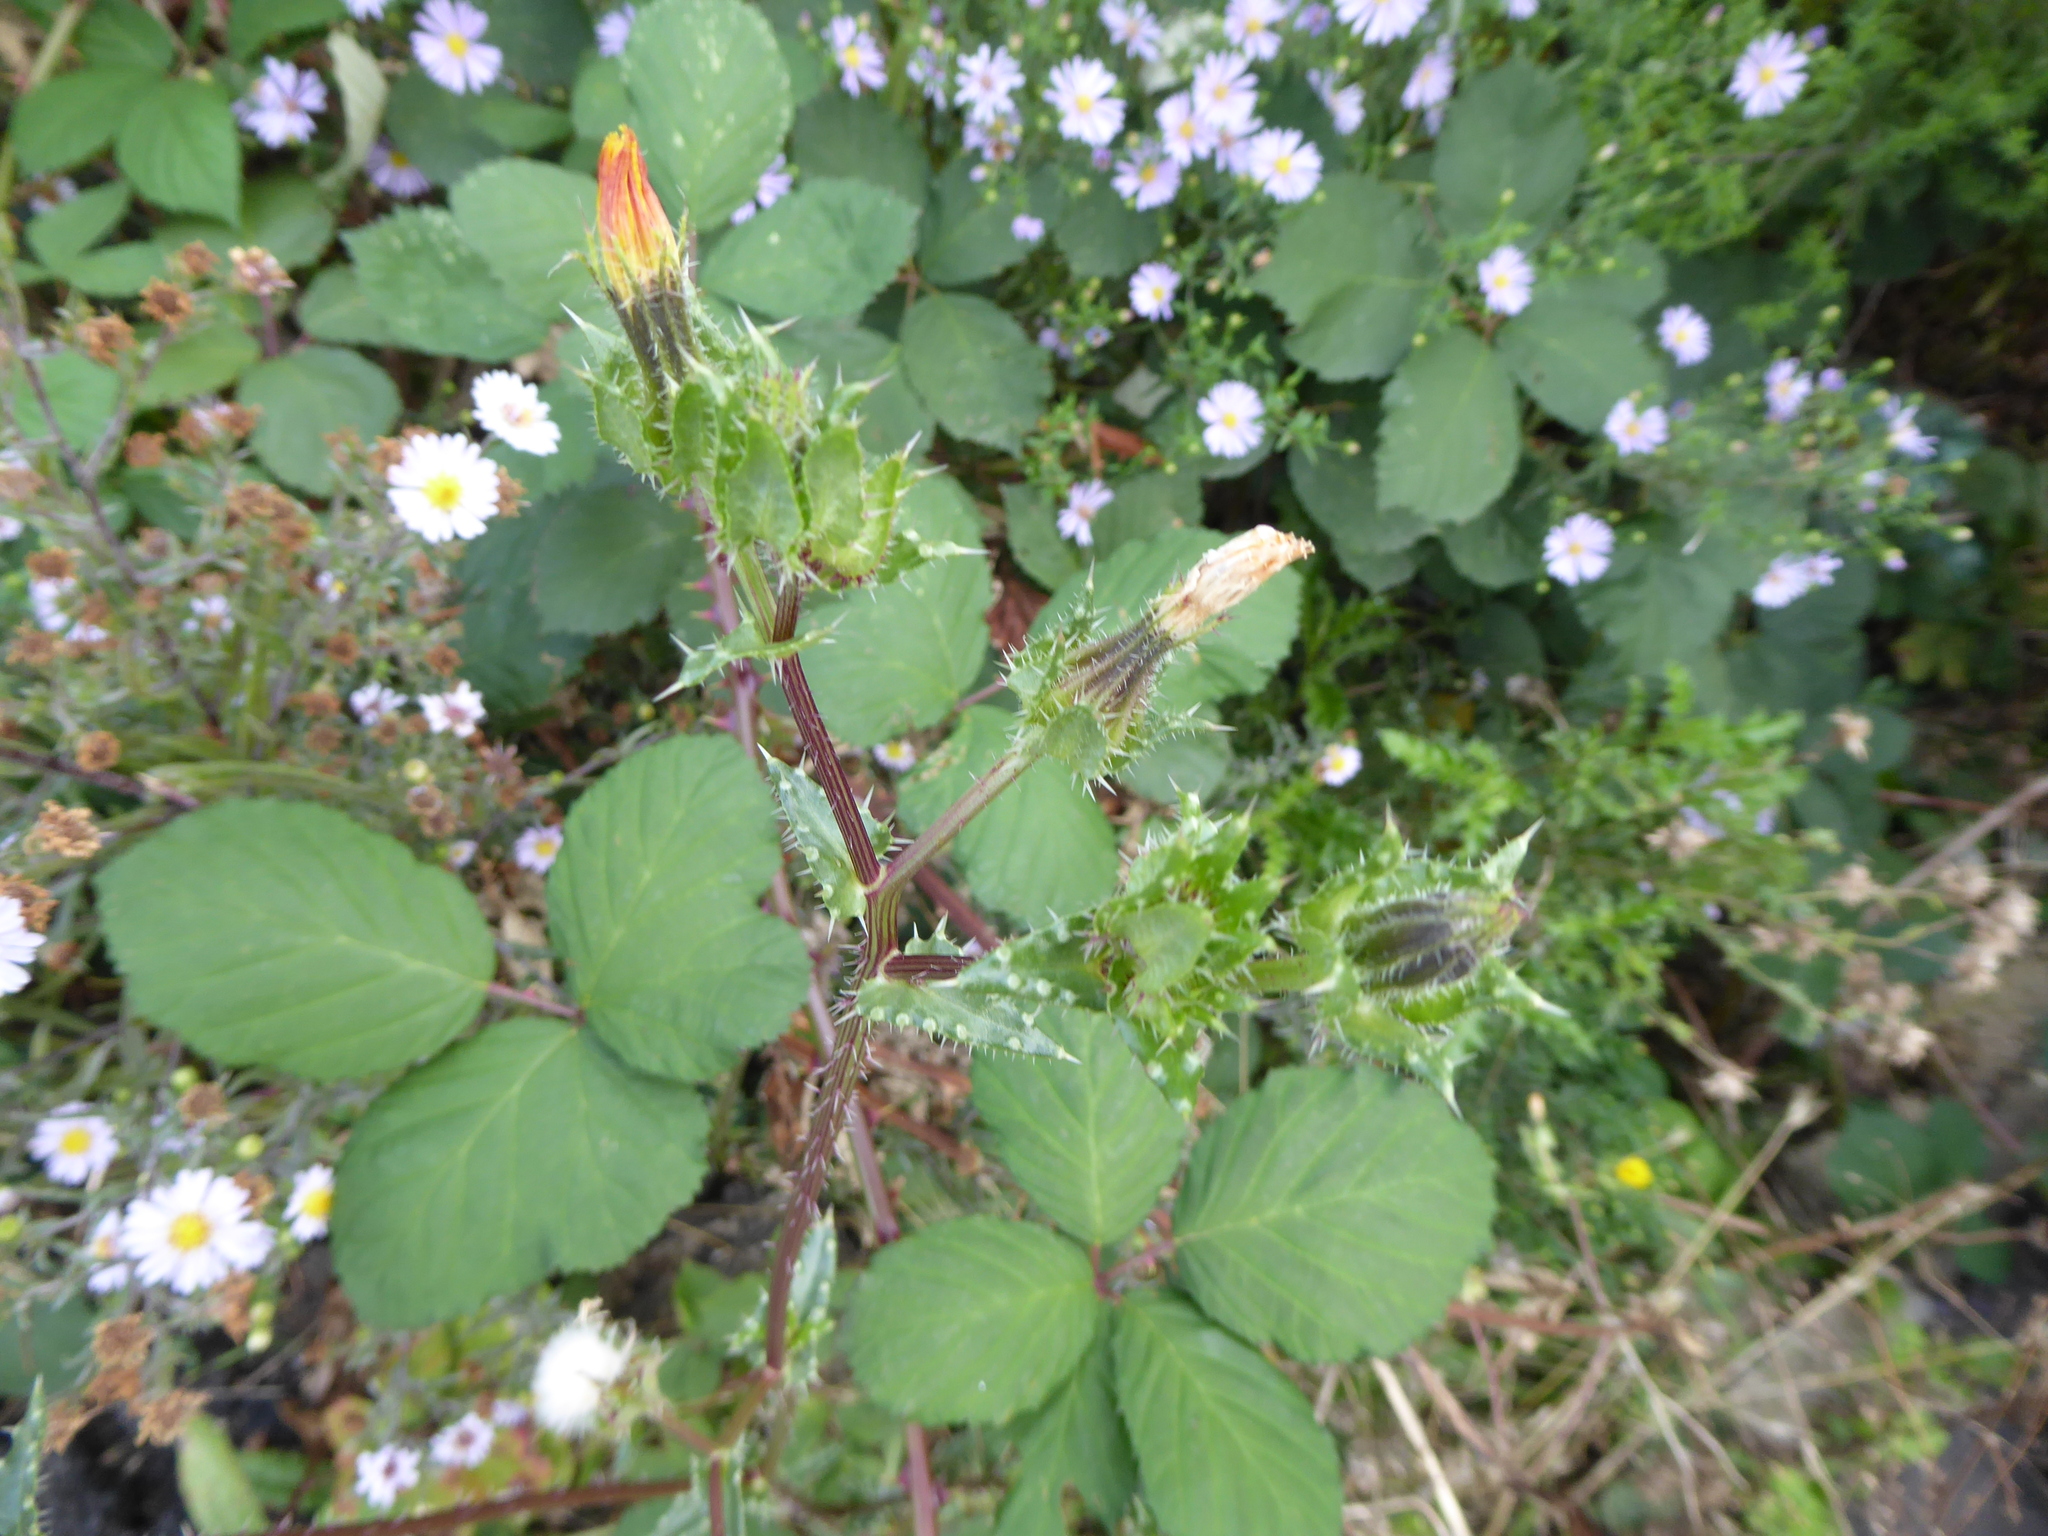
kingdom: Plantae
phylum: Tracheophyta
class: Magnoliopsida
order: Asterales
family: Asteraceae
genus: Helminthotheca
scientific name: Helminthotheca echioides
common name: Ox-tongue
